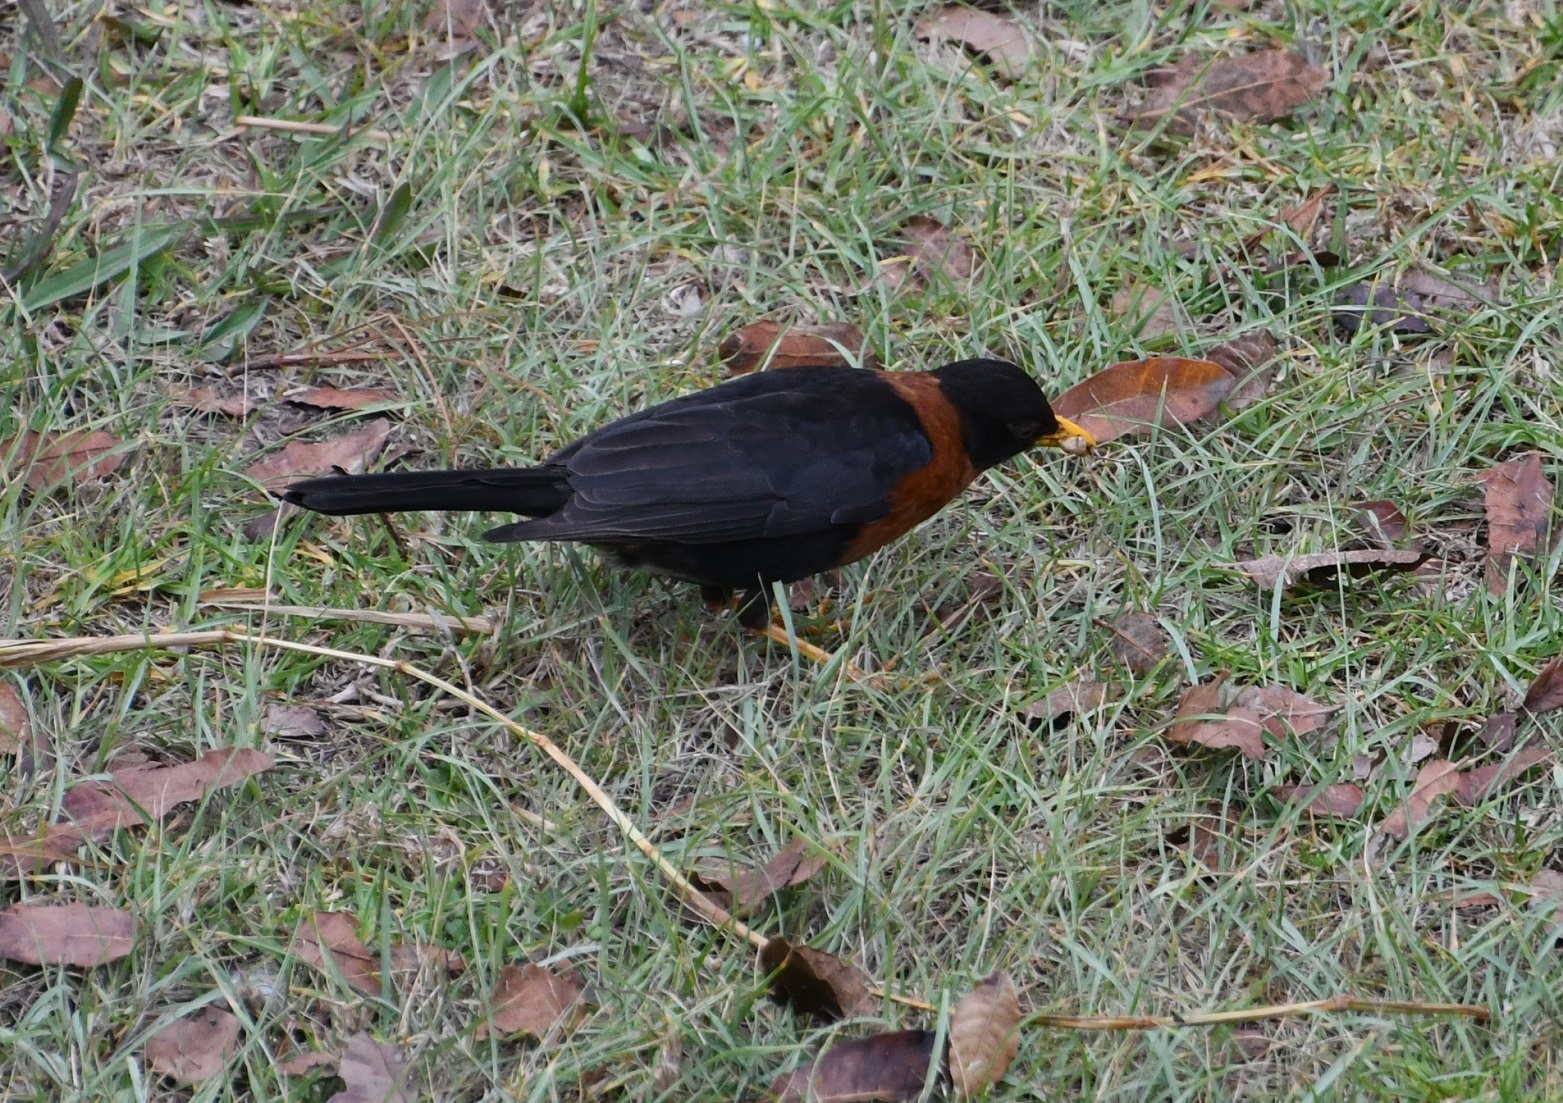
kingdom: Animalia
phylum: Chordata
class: Aves
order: Passeriformes
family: Turdidae
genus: Turdus
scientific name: Turdus rufitorques
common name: Rufous-collared thrush
